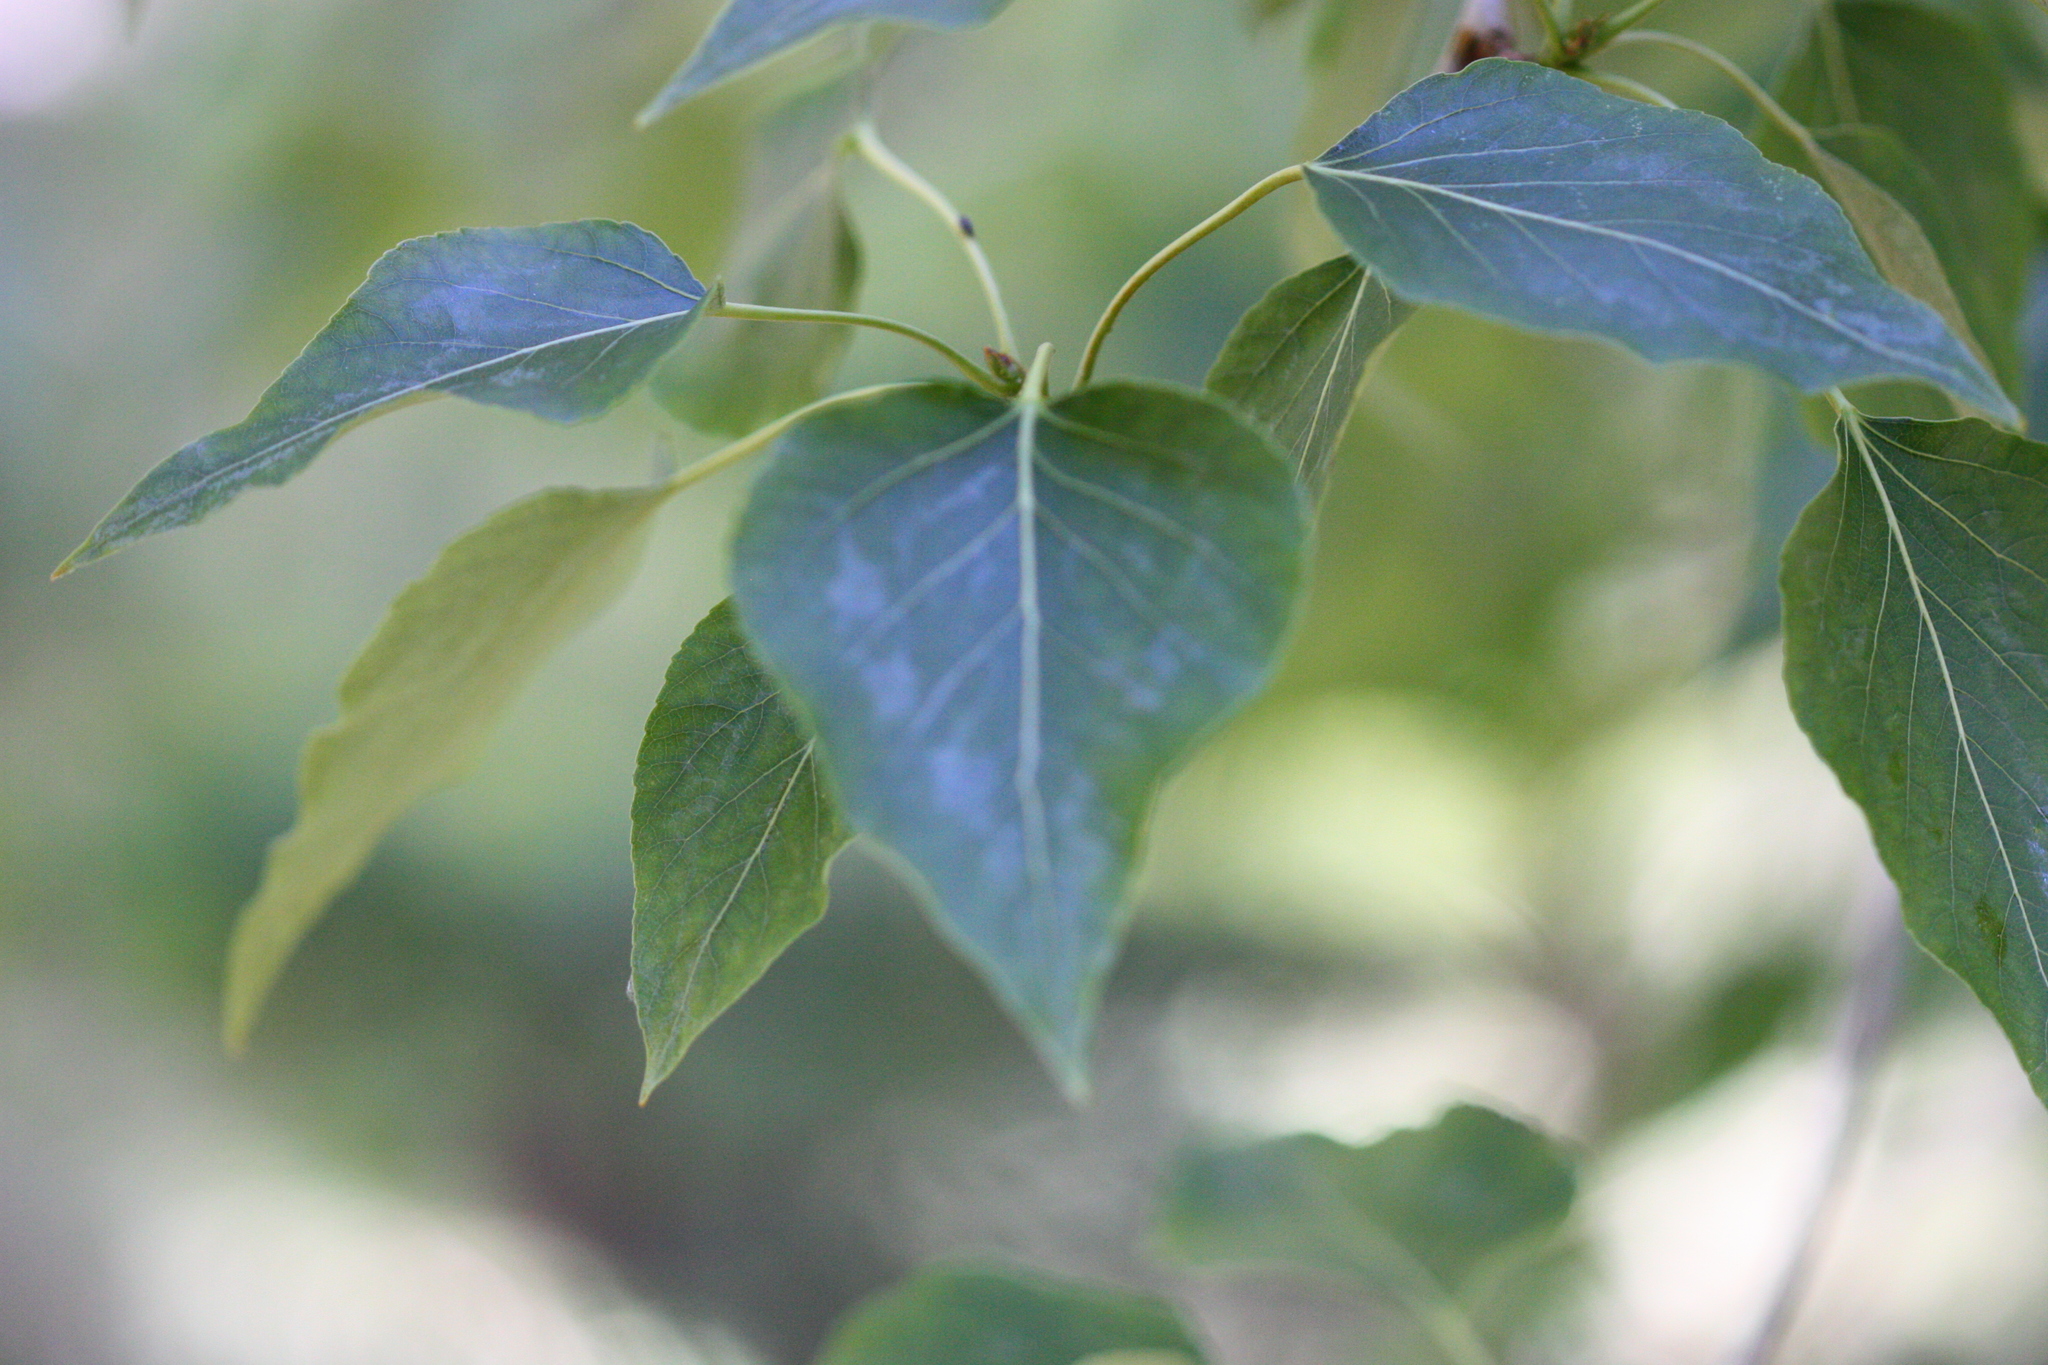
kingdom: Plantae
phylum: Tracheophyta
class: Magnoliopsida
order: Malpighiales
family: Salicaceae
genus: Populus
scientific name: Populus trichocarpa
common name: Black cottonwood
